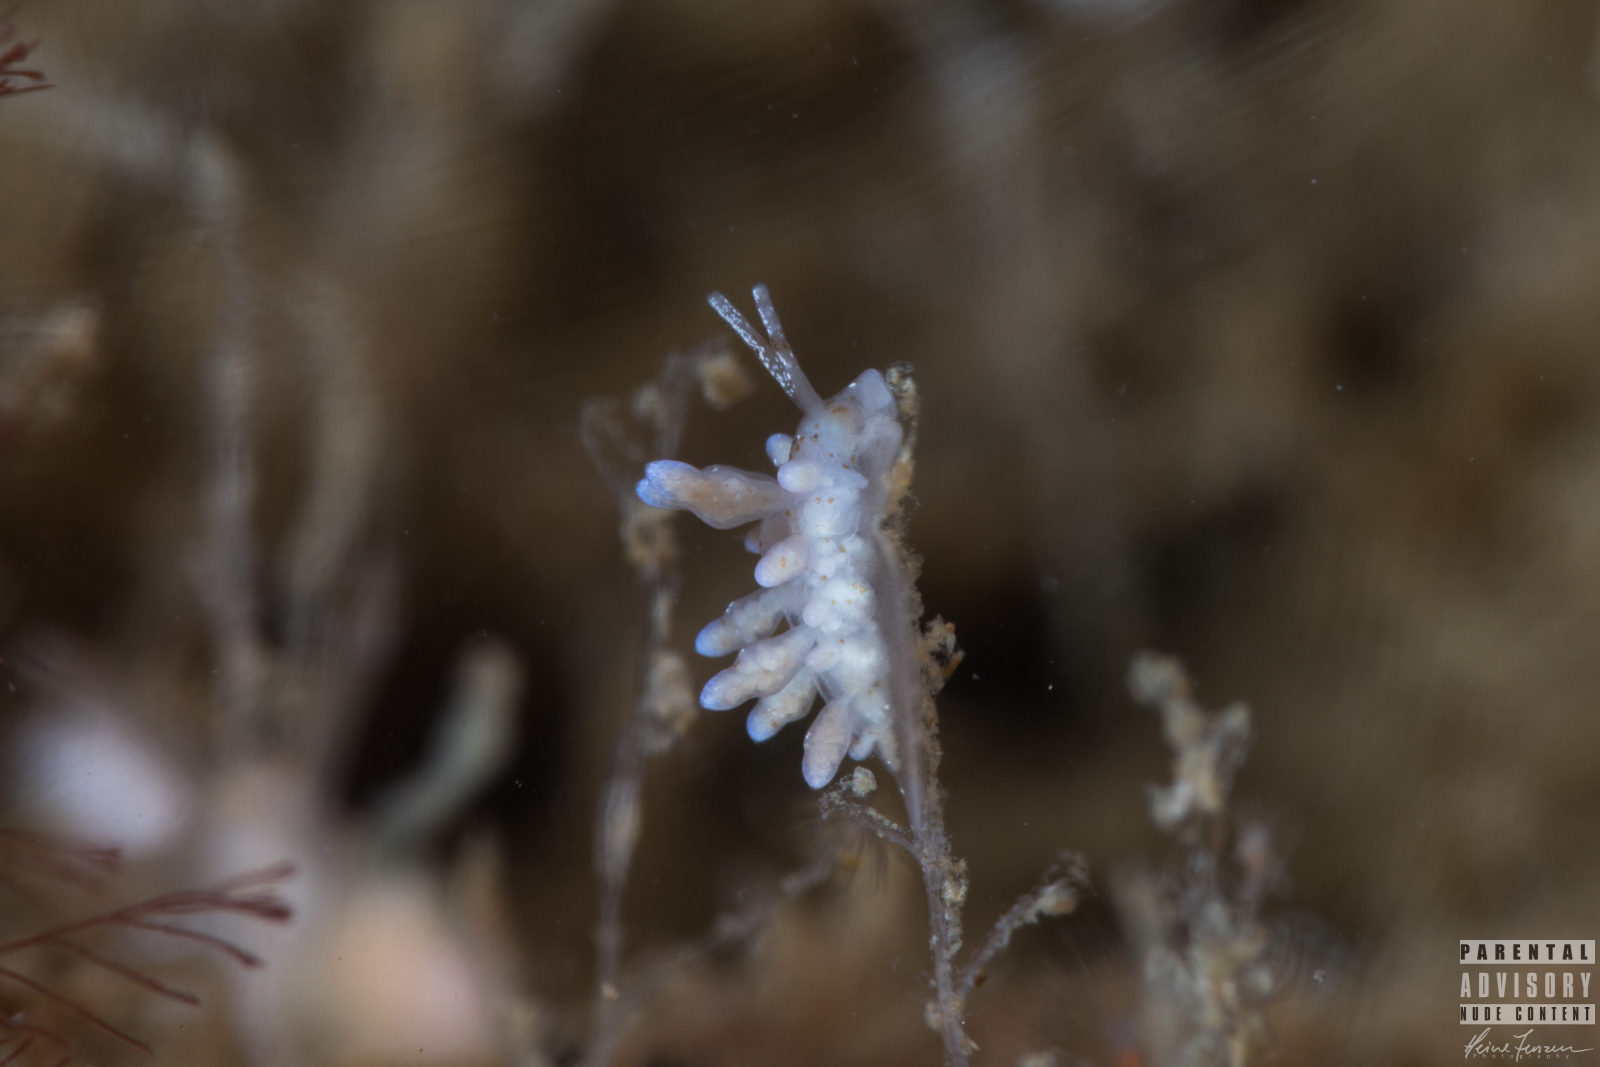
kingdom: Animalia
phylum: Mollusca
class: Gastropoda
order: Nudibranchia
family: Eubranchidae
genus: Eubranchus
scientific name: Eubranchus rupium
